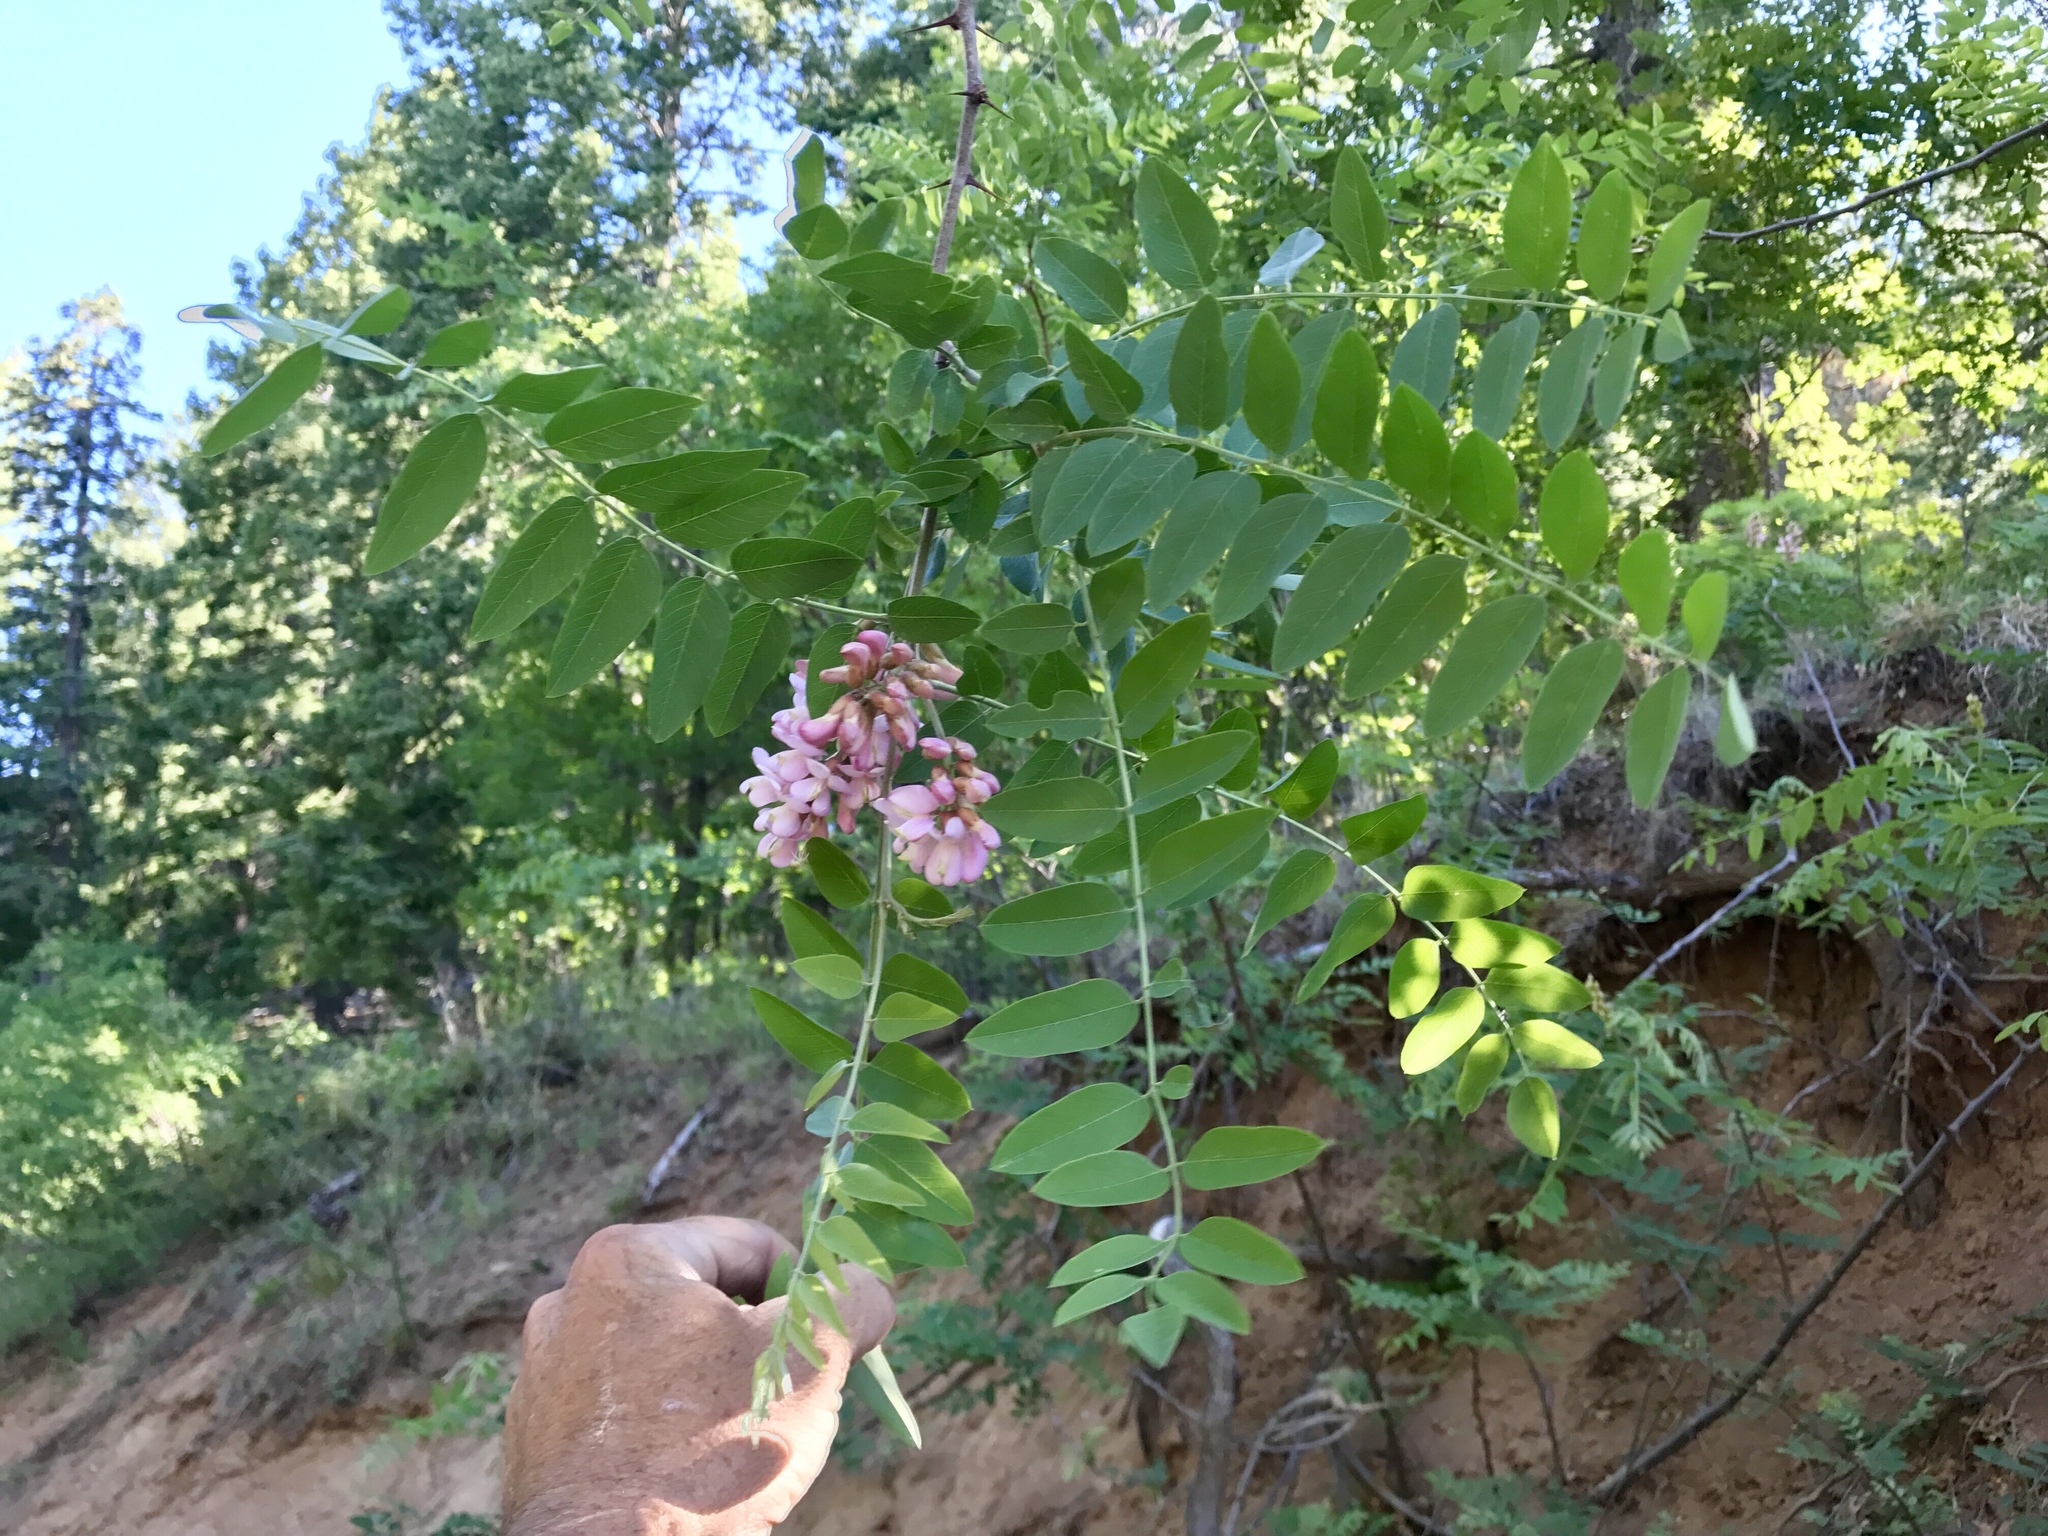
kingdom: Plantae
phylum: Tracheophyta
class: Magnoliopsida
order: Fabales
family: Fabaceae
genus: Robinia
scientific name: Robinia neomexicana
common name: New mexico locust
